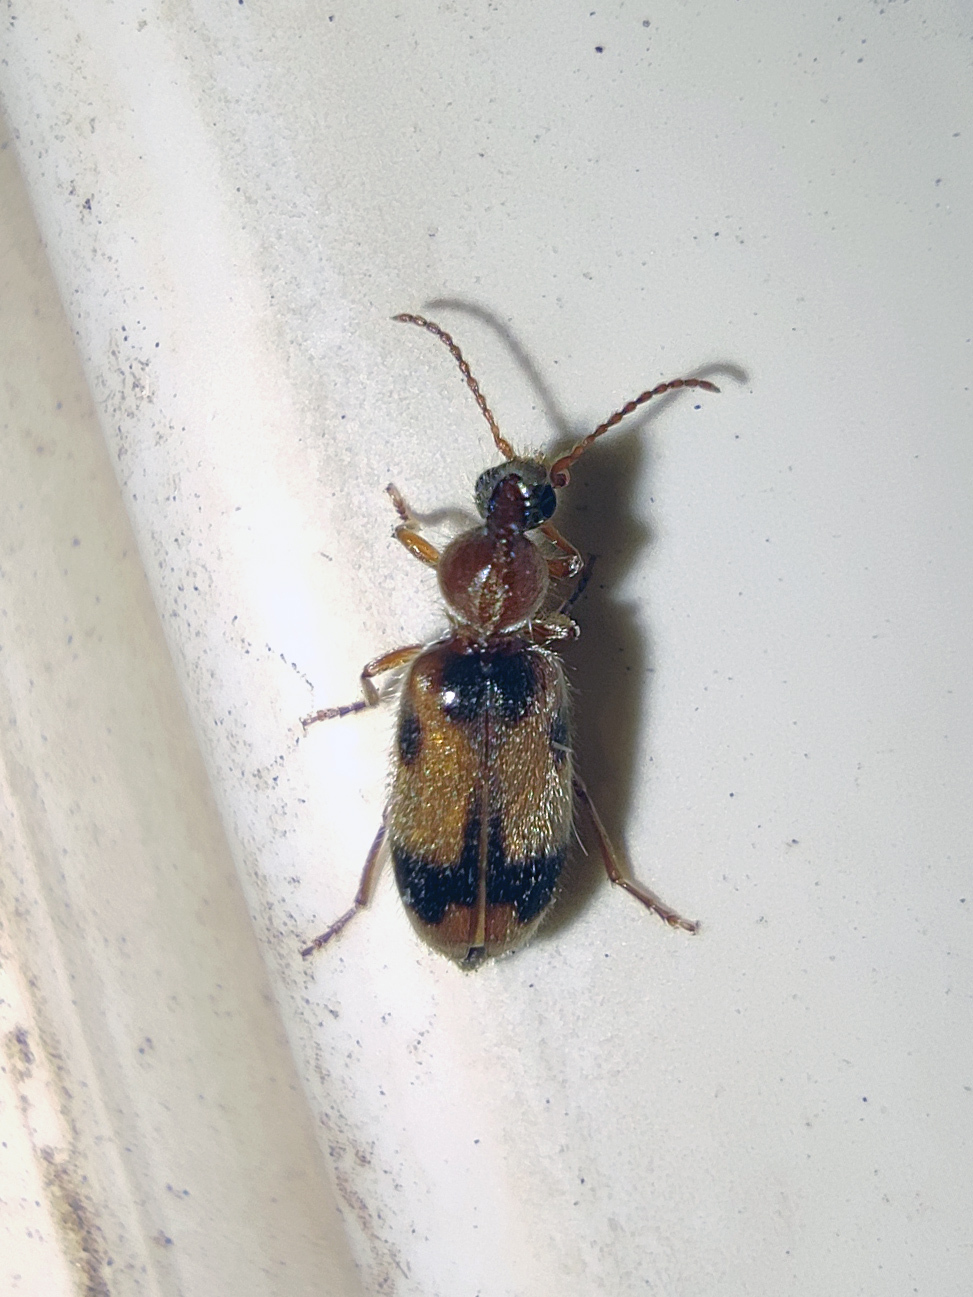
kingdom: Animalia
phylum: Arthropoda
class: Insecta
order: Coleoptera
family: Anthicidae
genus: Notoxus
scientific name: Notoxus monoceros
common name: Monoceros beetle
